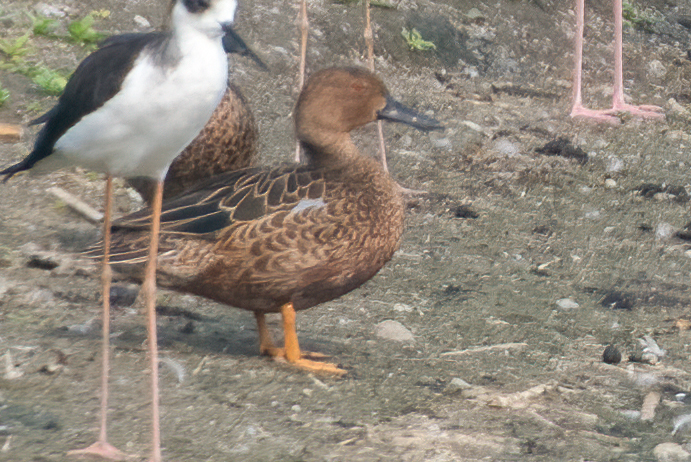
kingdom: Animalia
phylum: Chordata
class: Aves
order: Anseriformes
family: Anatidae
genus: Spatula
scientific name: Spatula cyanoptera
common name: Cinnamon teal
